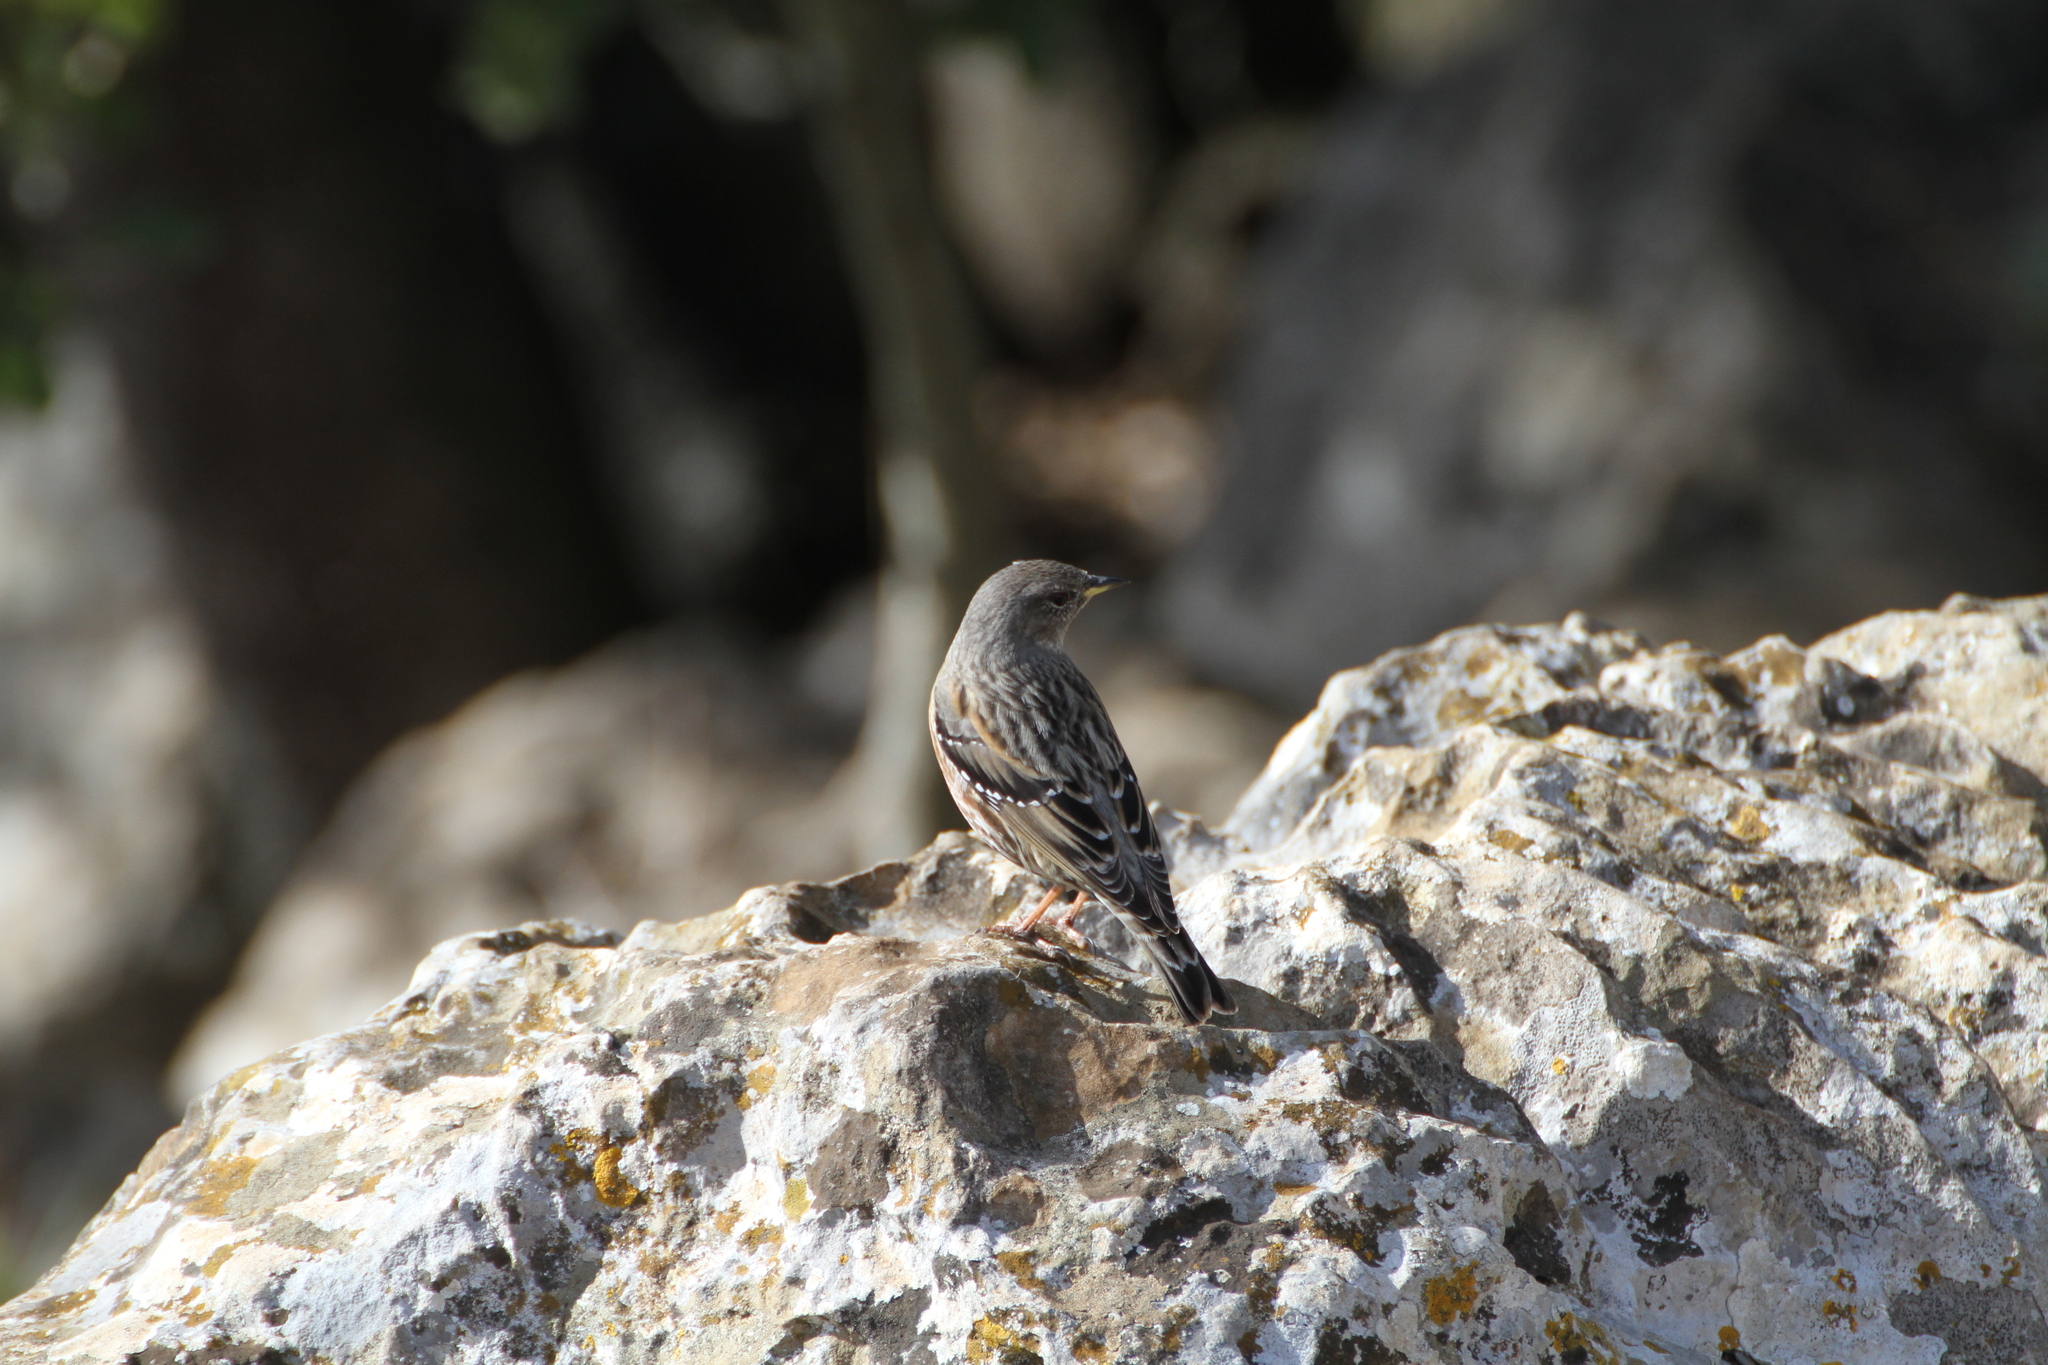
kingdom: Animalia
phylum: Chordata
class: Aves
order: Passeriformes
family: Prunellidae
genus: Prunella
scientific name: Prunella collaris
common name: Alpine accentor
